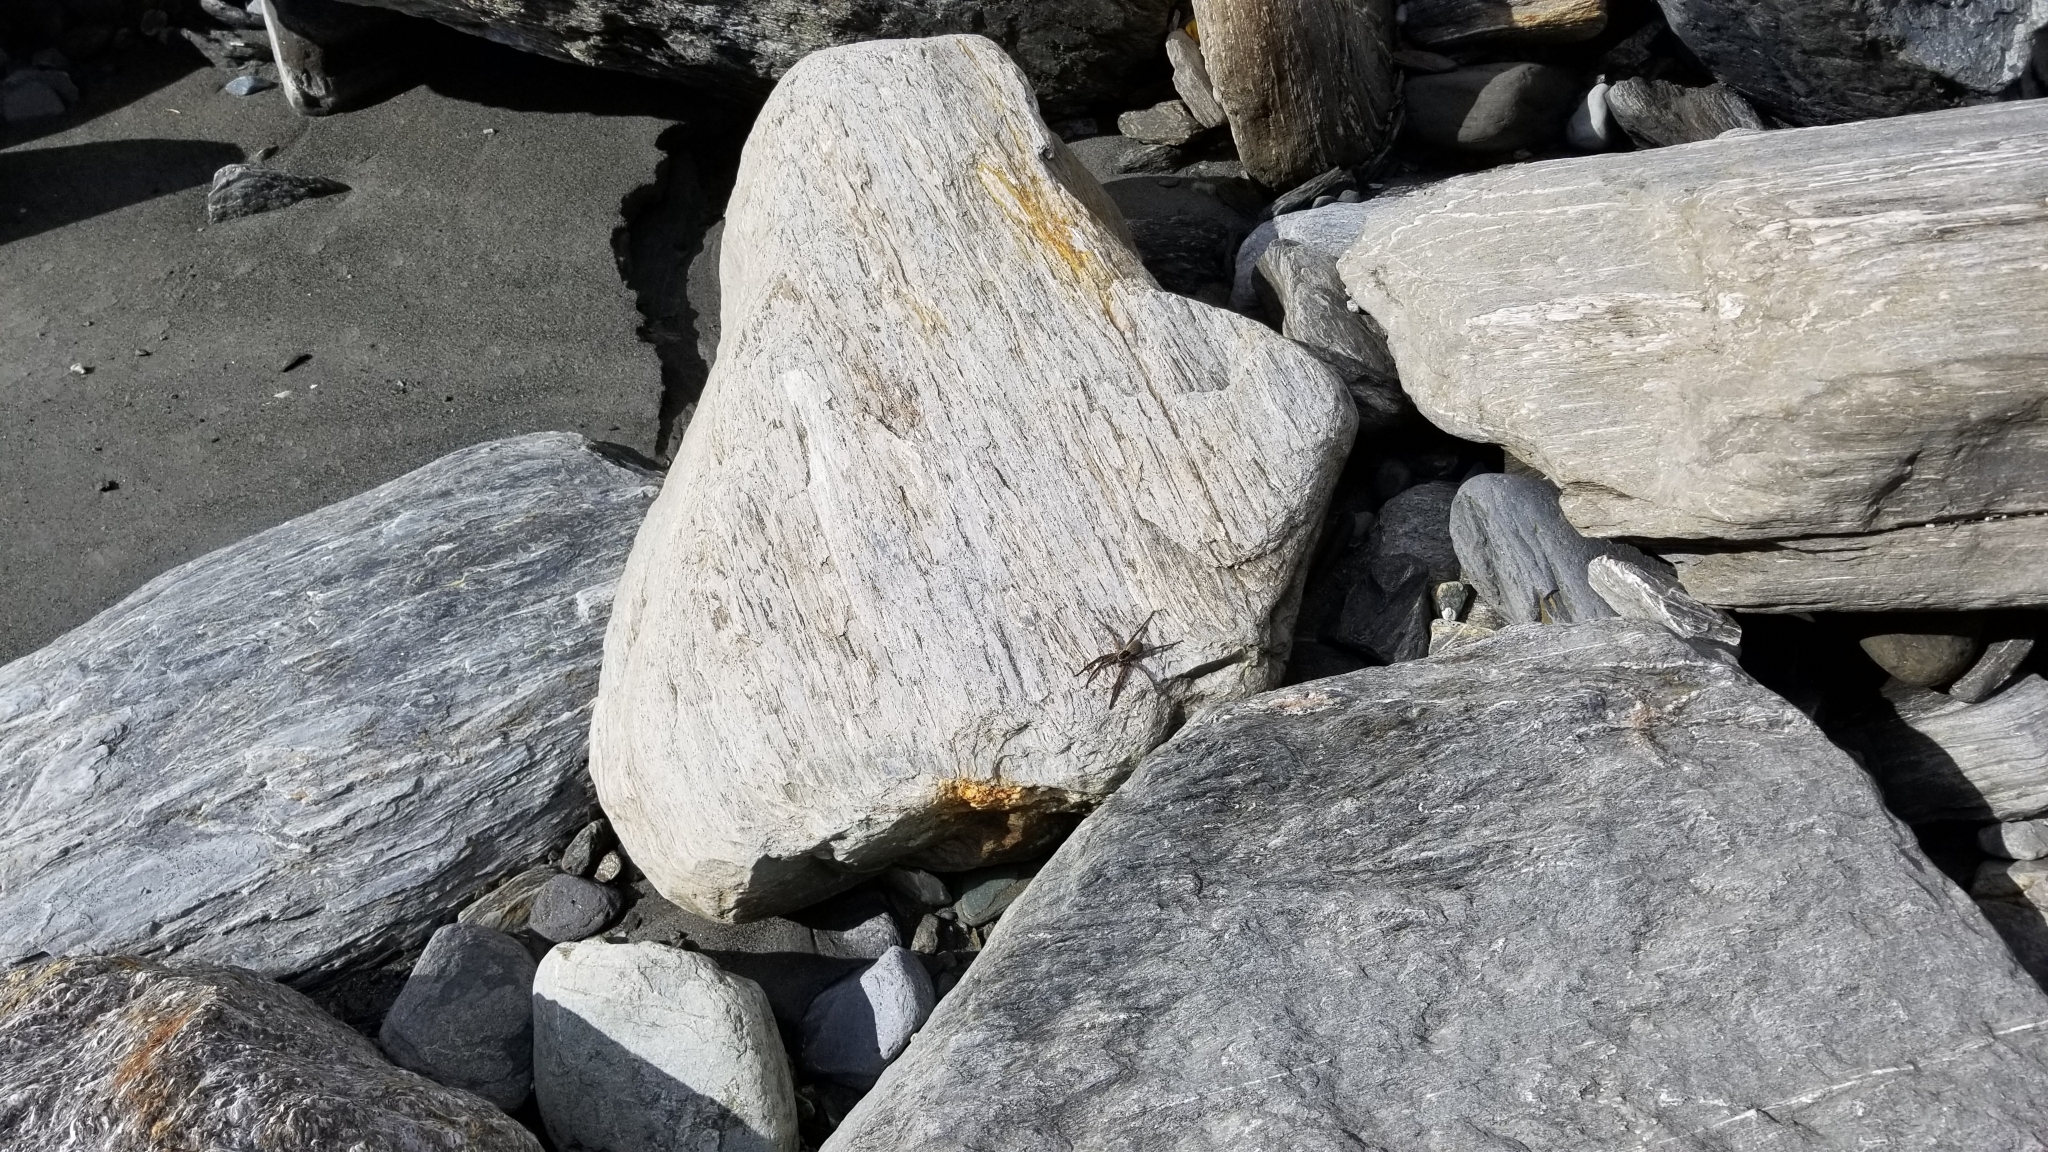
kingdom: Animalia
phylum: Arthropoda
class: Arachnida
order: Araneae
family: Pisauridae
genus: Dolomedes
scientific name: Dolomedes aquaticus
